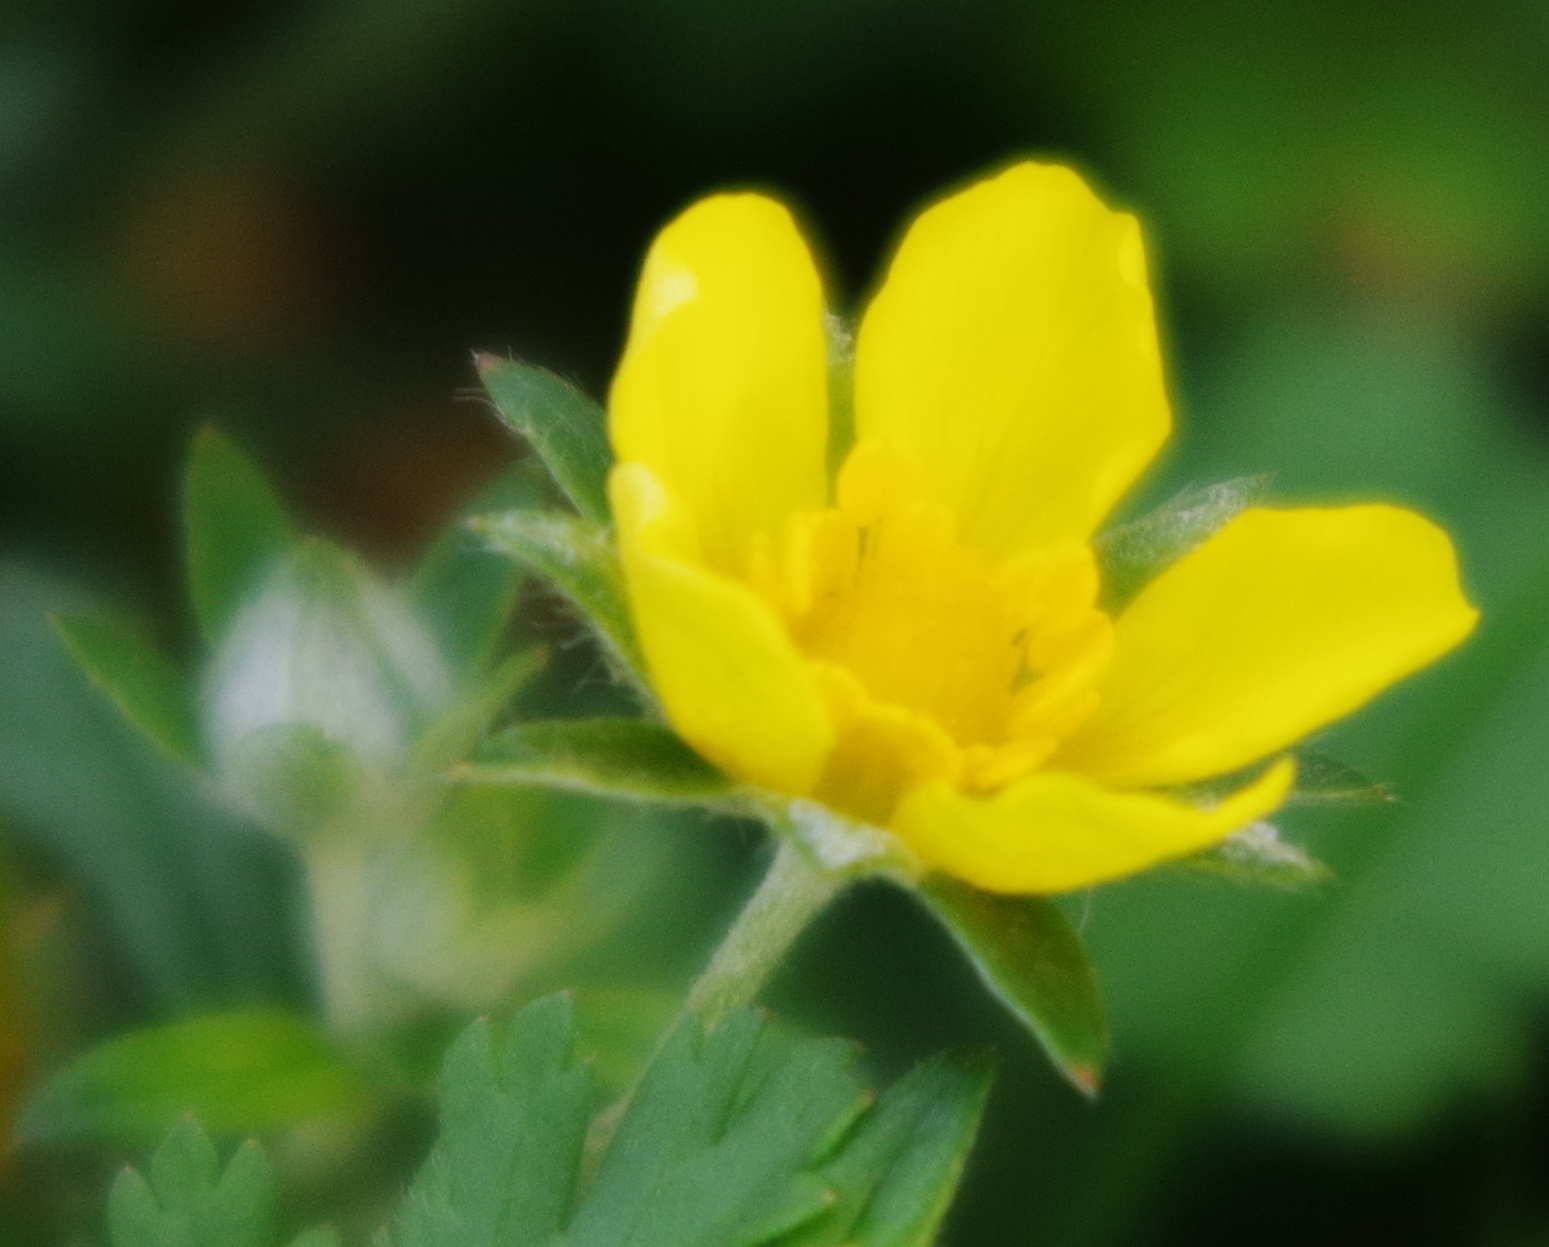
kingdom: Plantae
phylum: Tracheophyta
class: Magnoliopsida
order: Rosales
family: Rosaceae
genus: Potentilla
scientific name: Potentilla supina
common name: Prostrate cinquefoil
